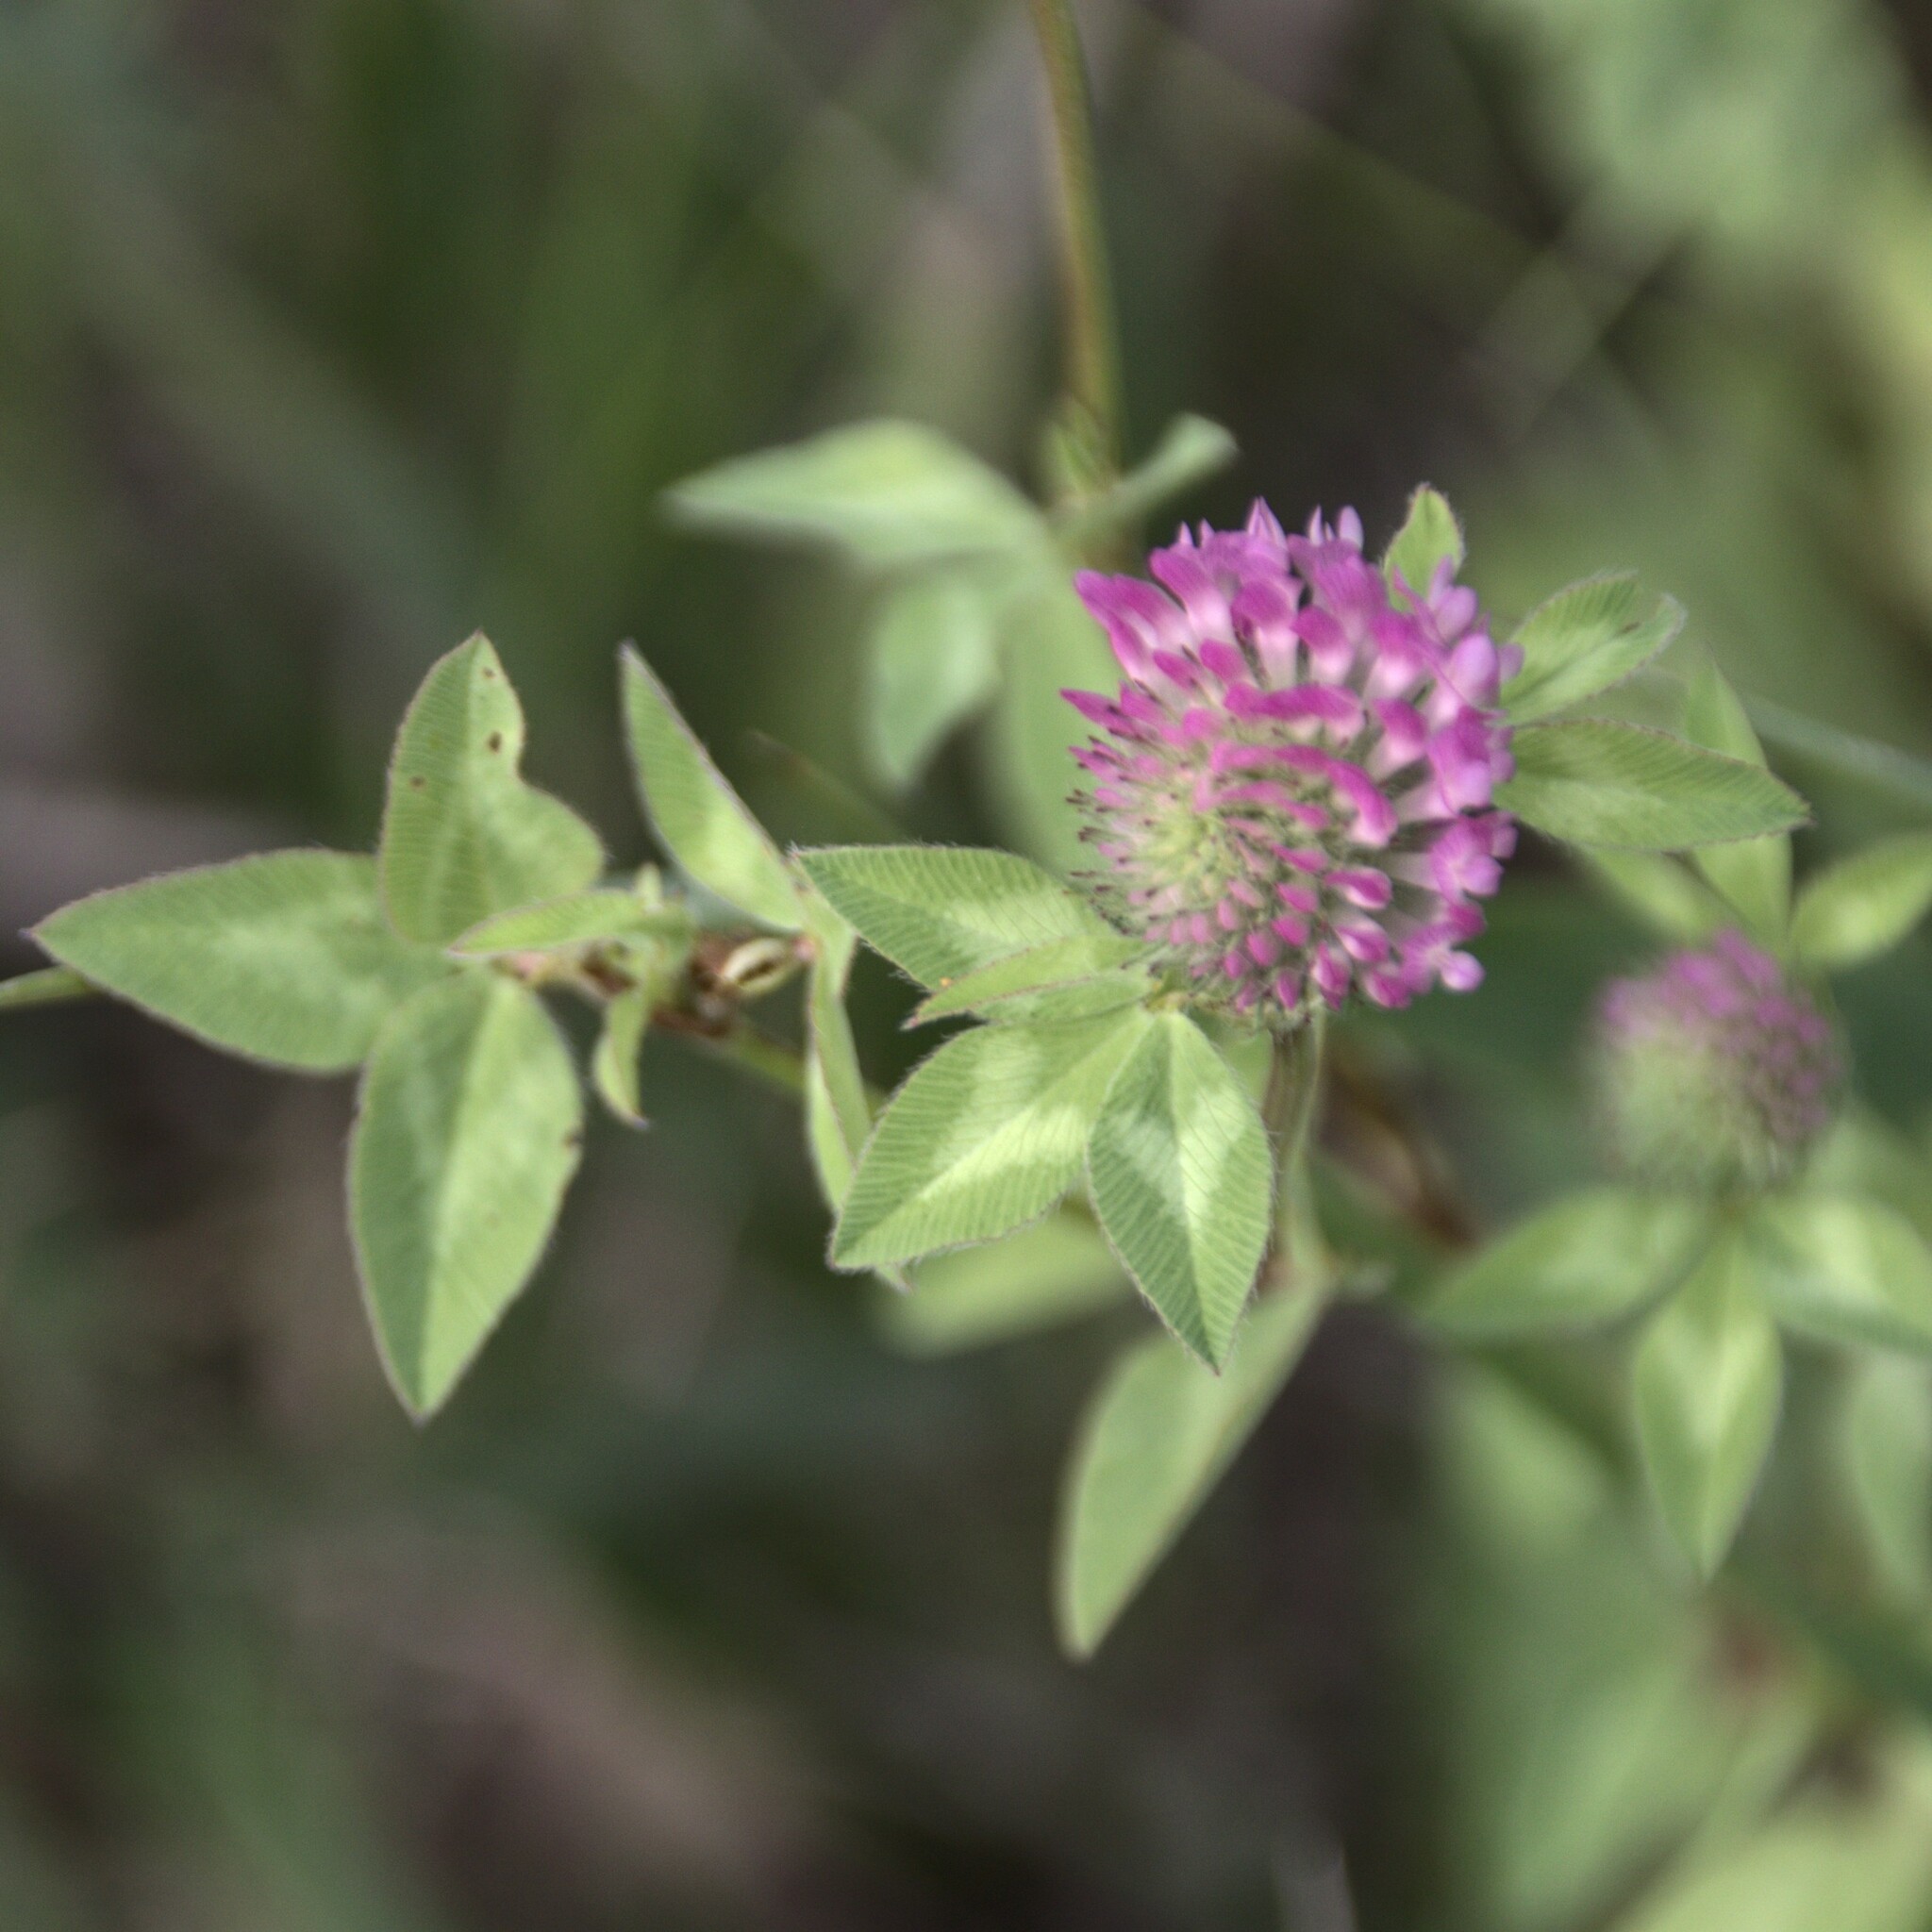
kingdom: Plantae
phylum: Tracheophyta
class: Magnoliopsida
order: Fabales
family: Fabaceae
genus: Trifolium
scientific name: Trifolium pratense
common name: Red clover
